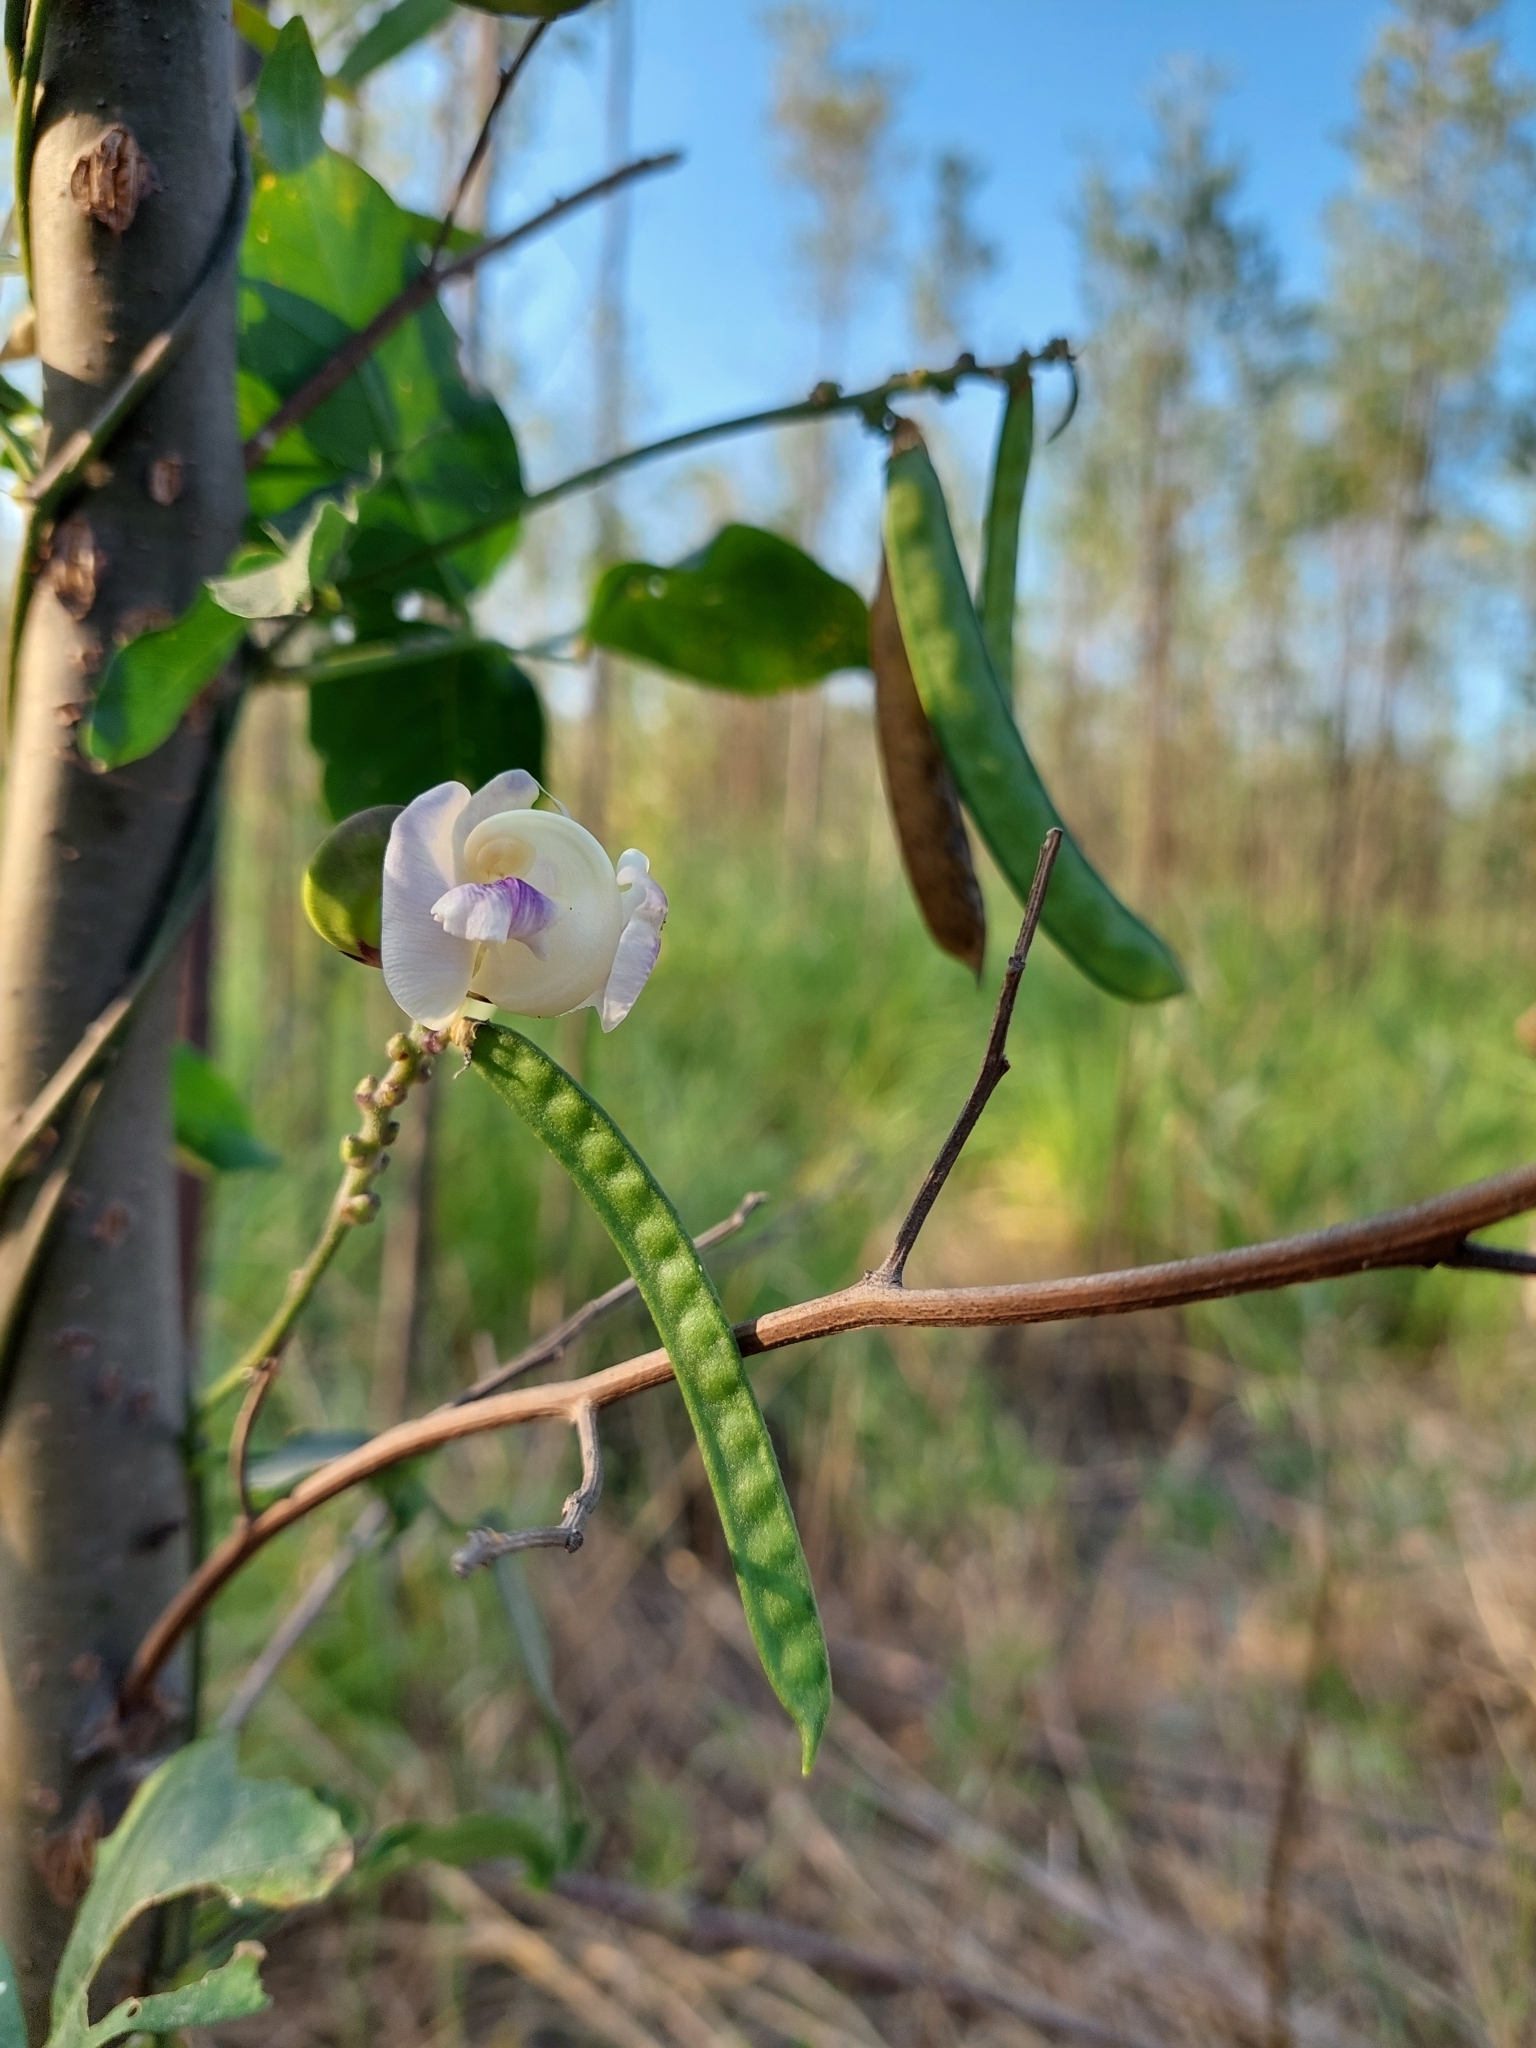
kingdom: Plantae
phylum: Tracheophyta
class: Magnoliopsida
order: Fabales
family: Fabaceae
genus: Leptospron
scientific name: Leptospron adenanthum
